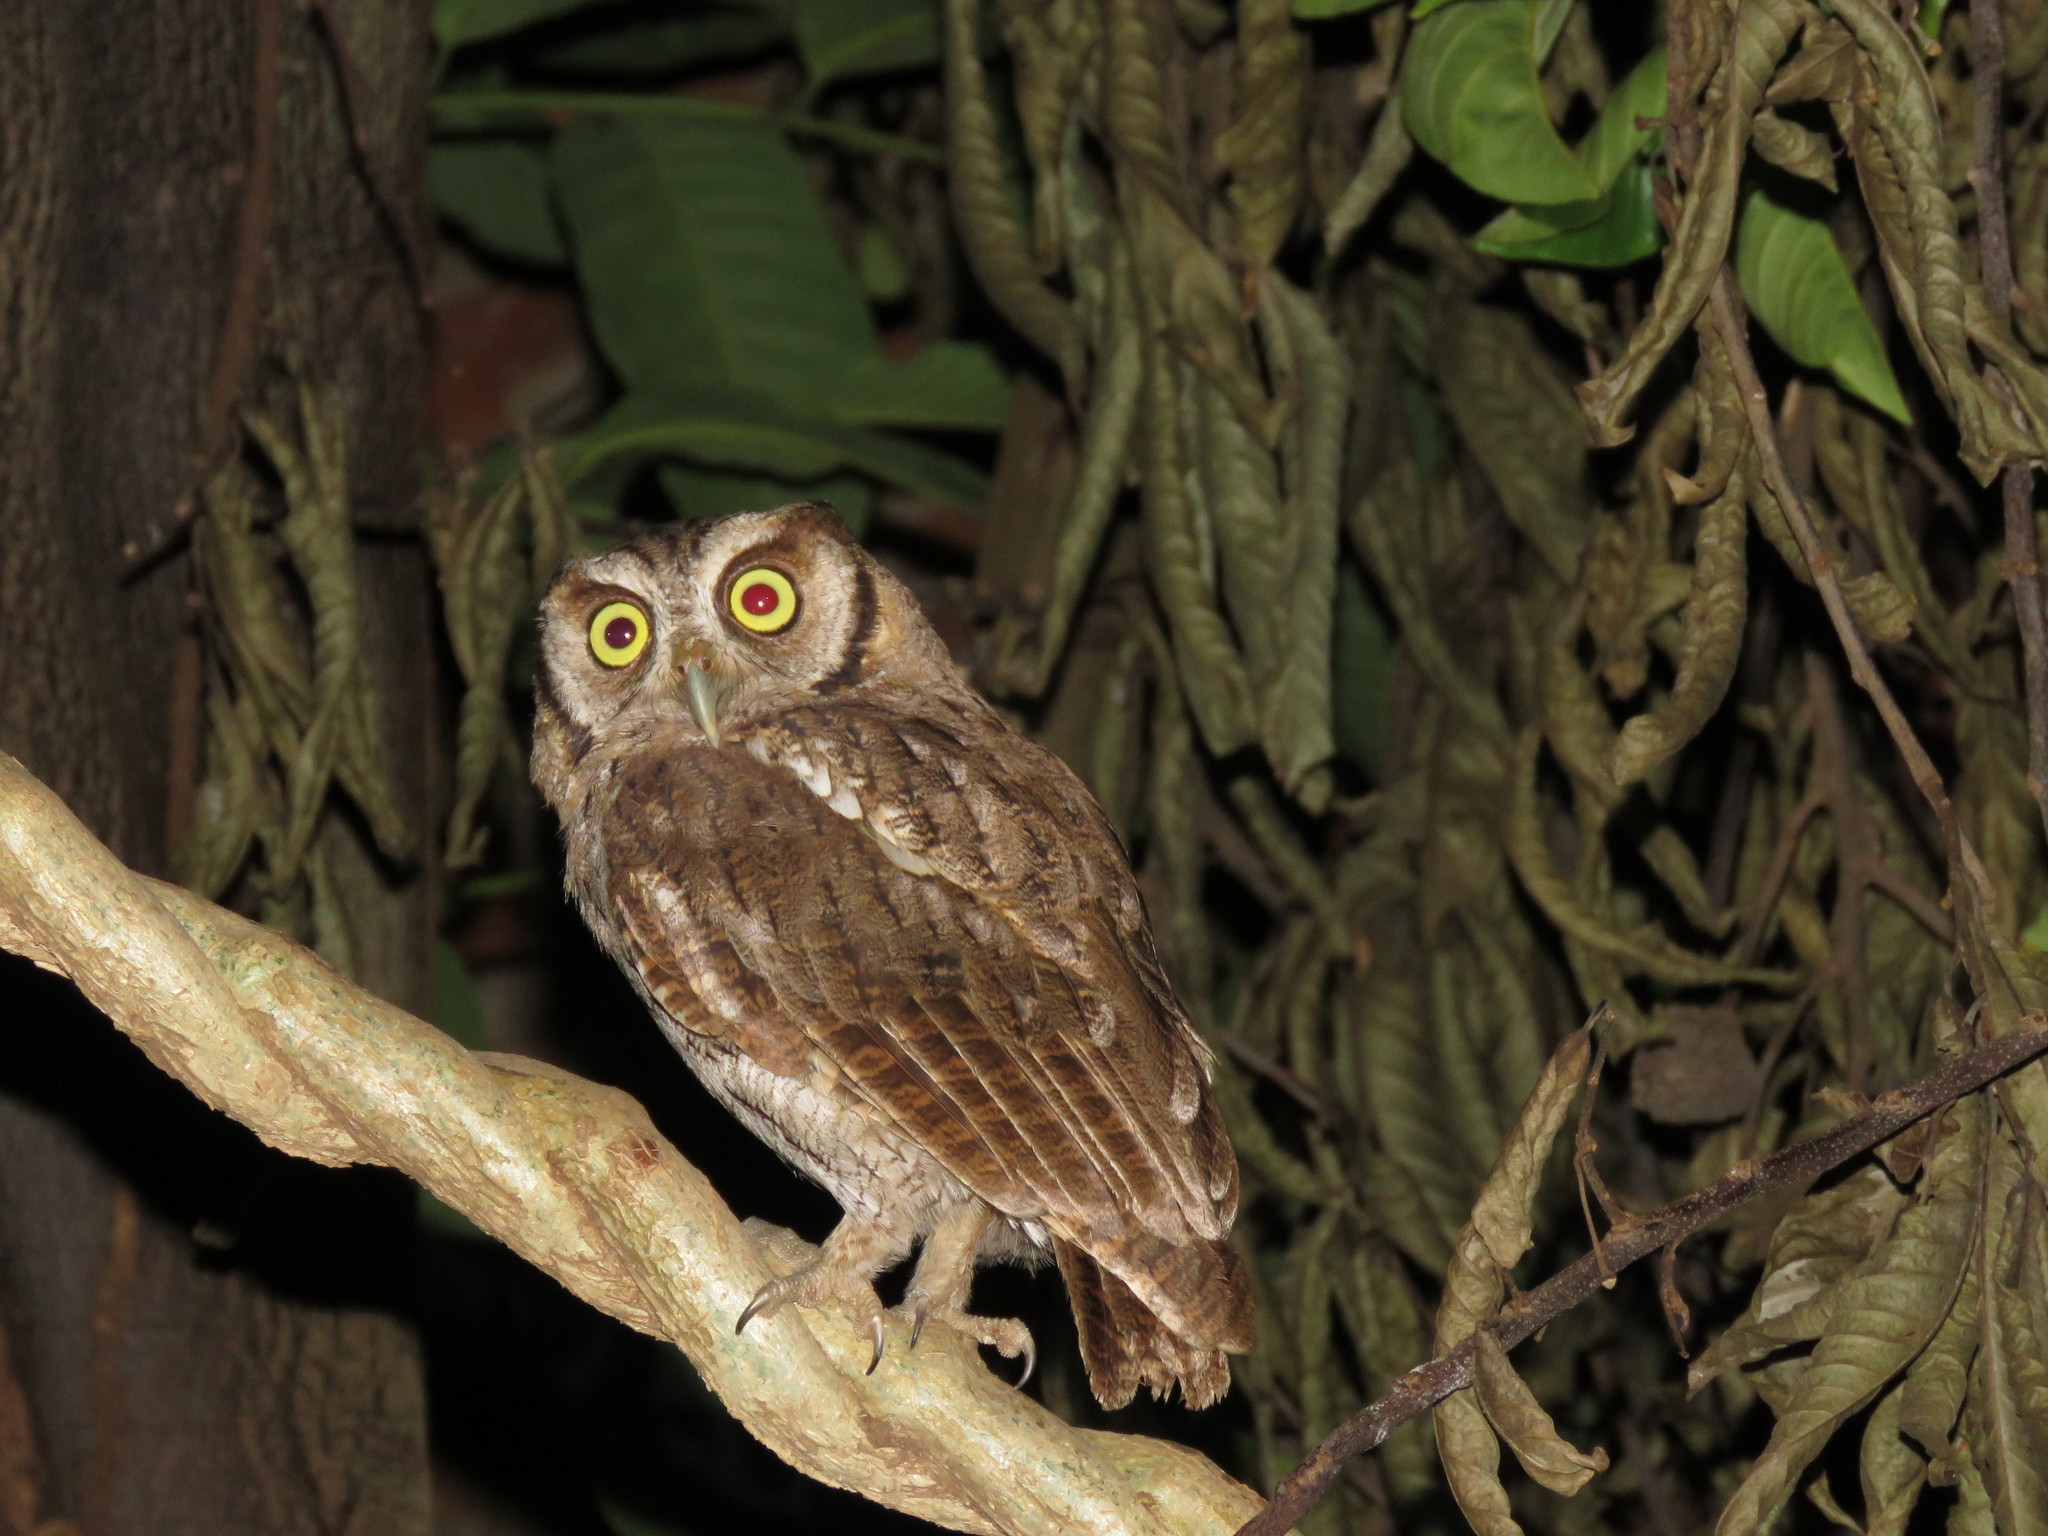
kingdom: Animalia
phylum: Chordata
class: Aves
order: Strigiformes
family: Strigidae
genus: Megascops
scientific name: Megascops choliba
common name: Tropical screech-owl
